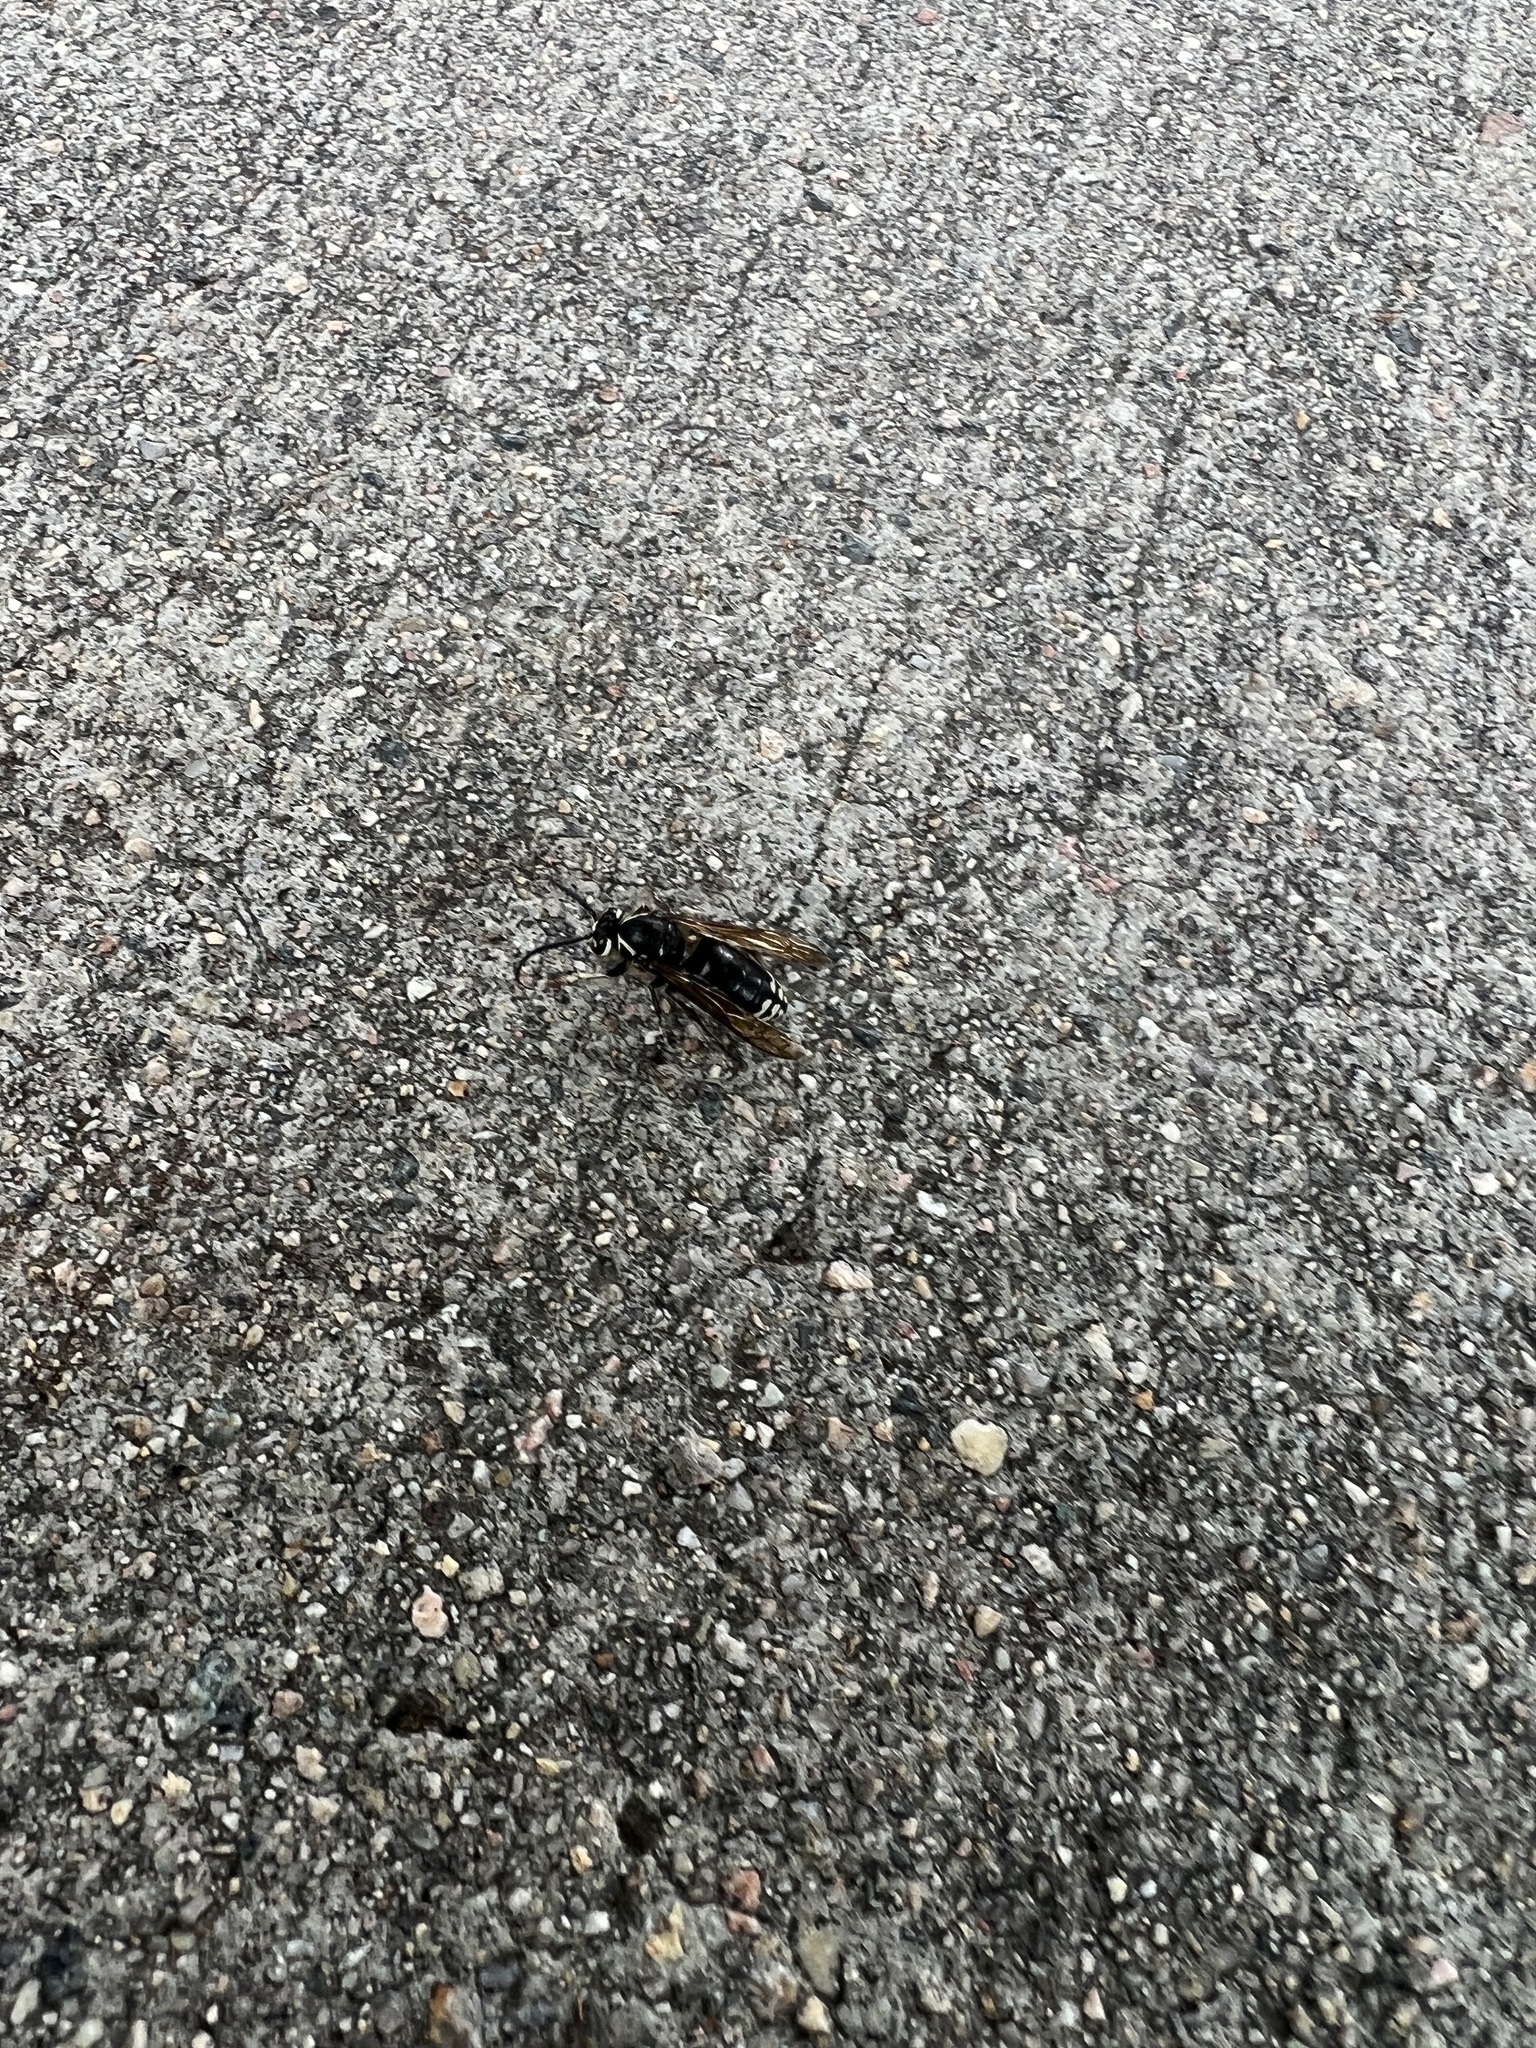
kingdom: Animalia
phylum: Arthropoda
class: Insecta
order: Hymenoptera
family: Vespidae
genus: Dolichovespula
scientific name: Dolichovespula maculata
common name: Bald-faced hornet
